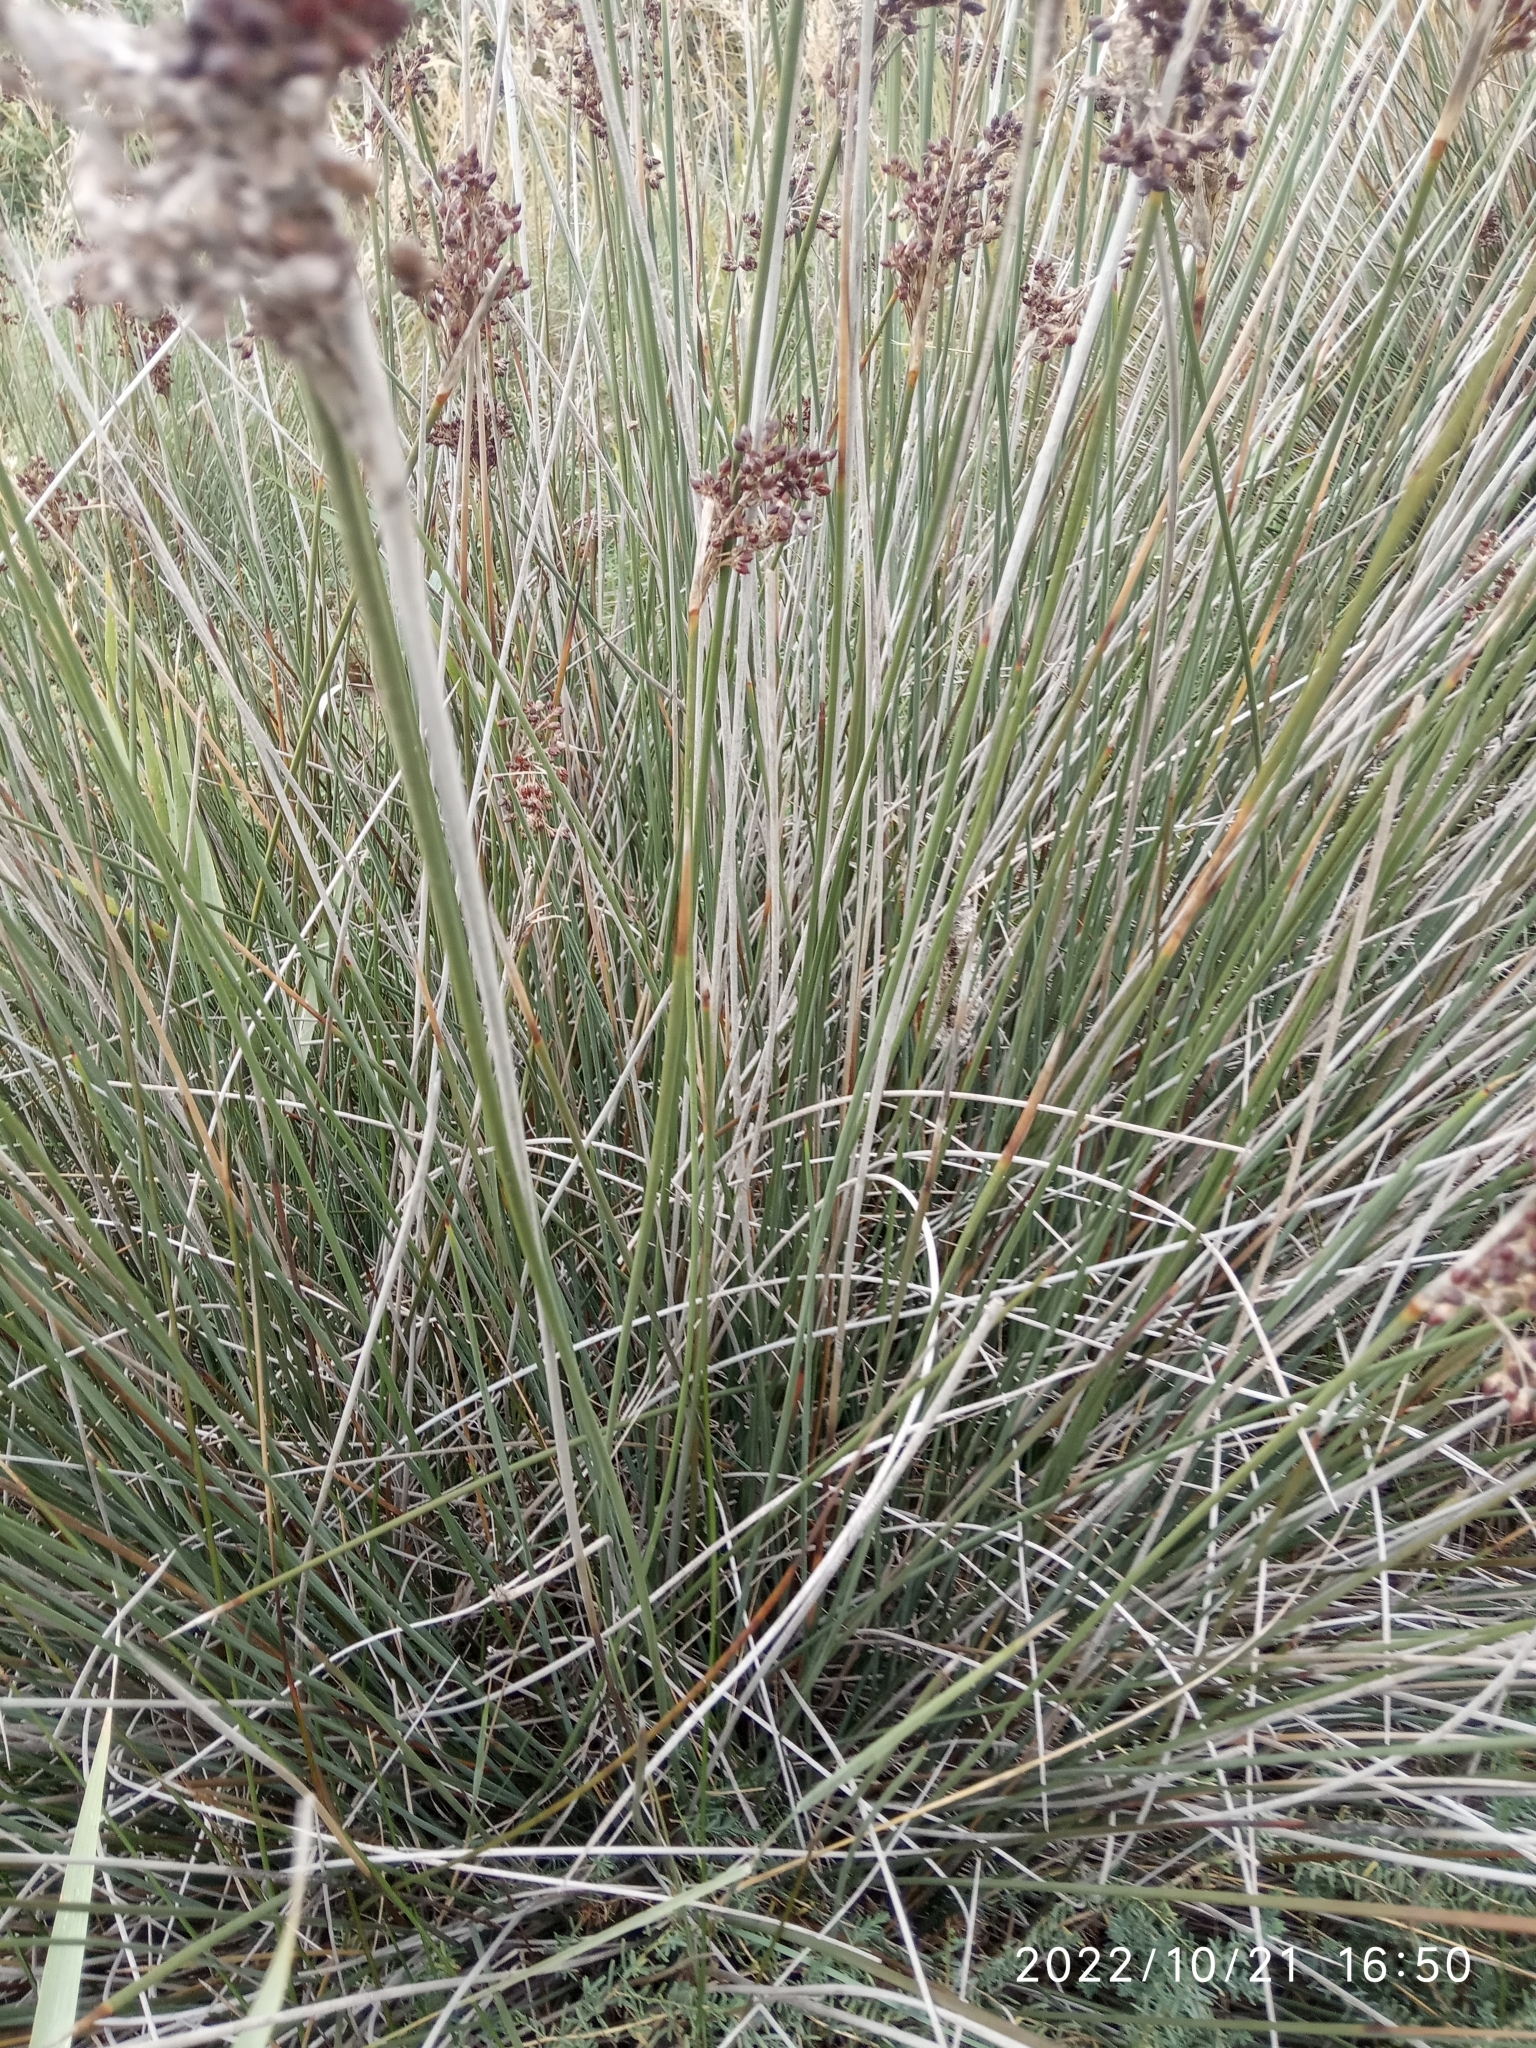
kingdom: Plantae
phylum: Tracheophyta
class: Liliopsida
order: Poales
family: Juncaceae
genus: Juncus
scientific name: Juncus acutus
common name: Sharp rush
